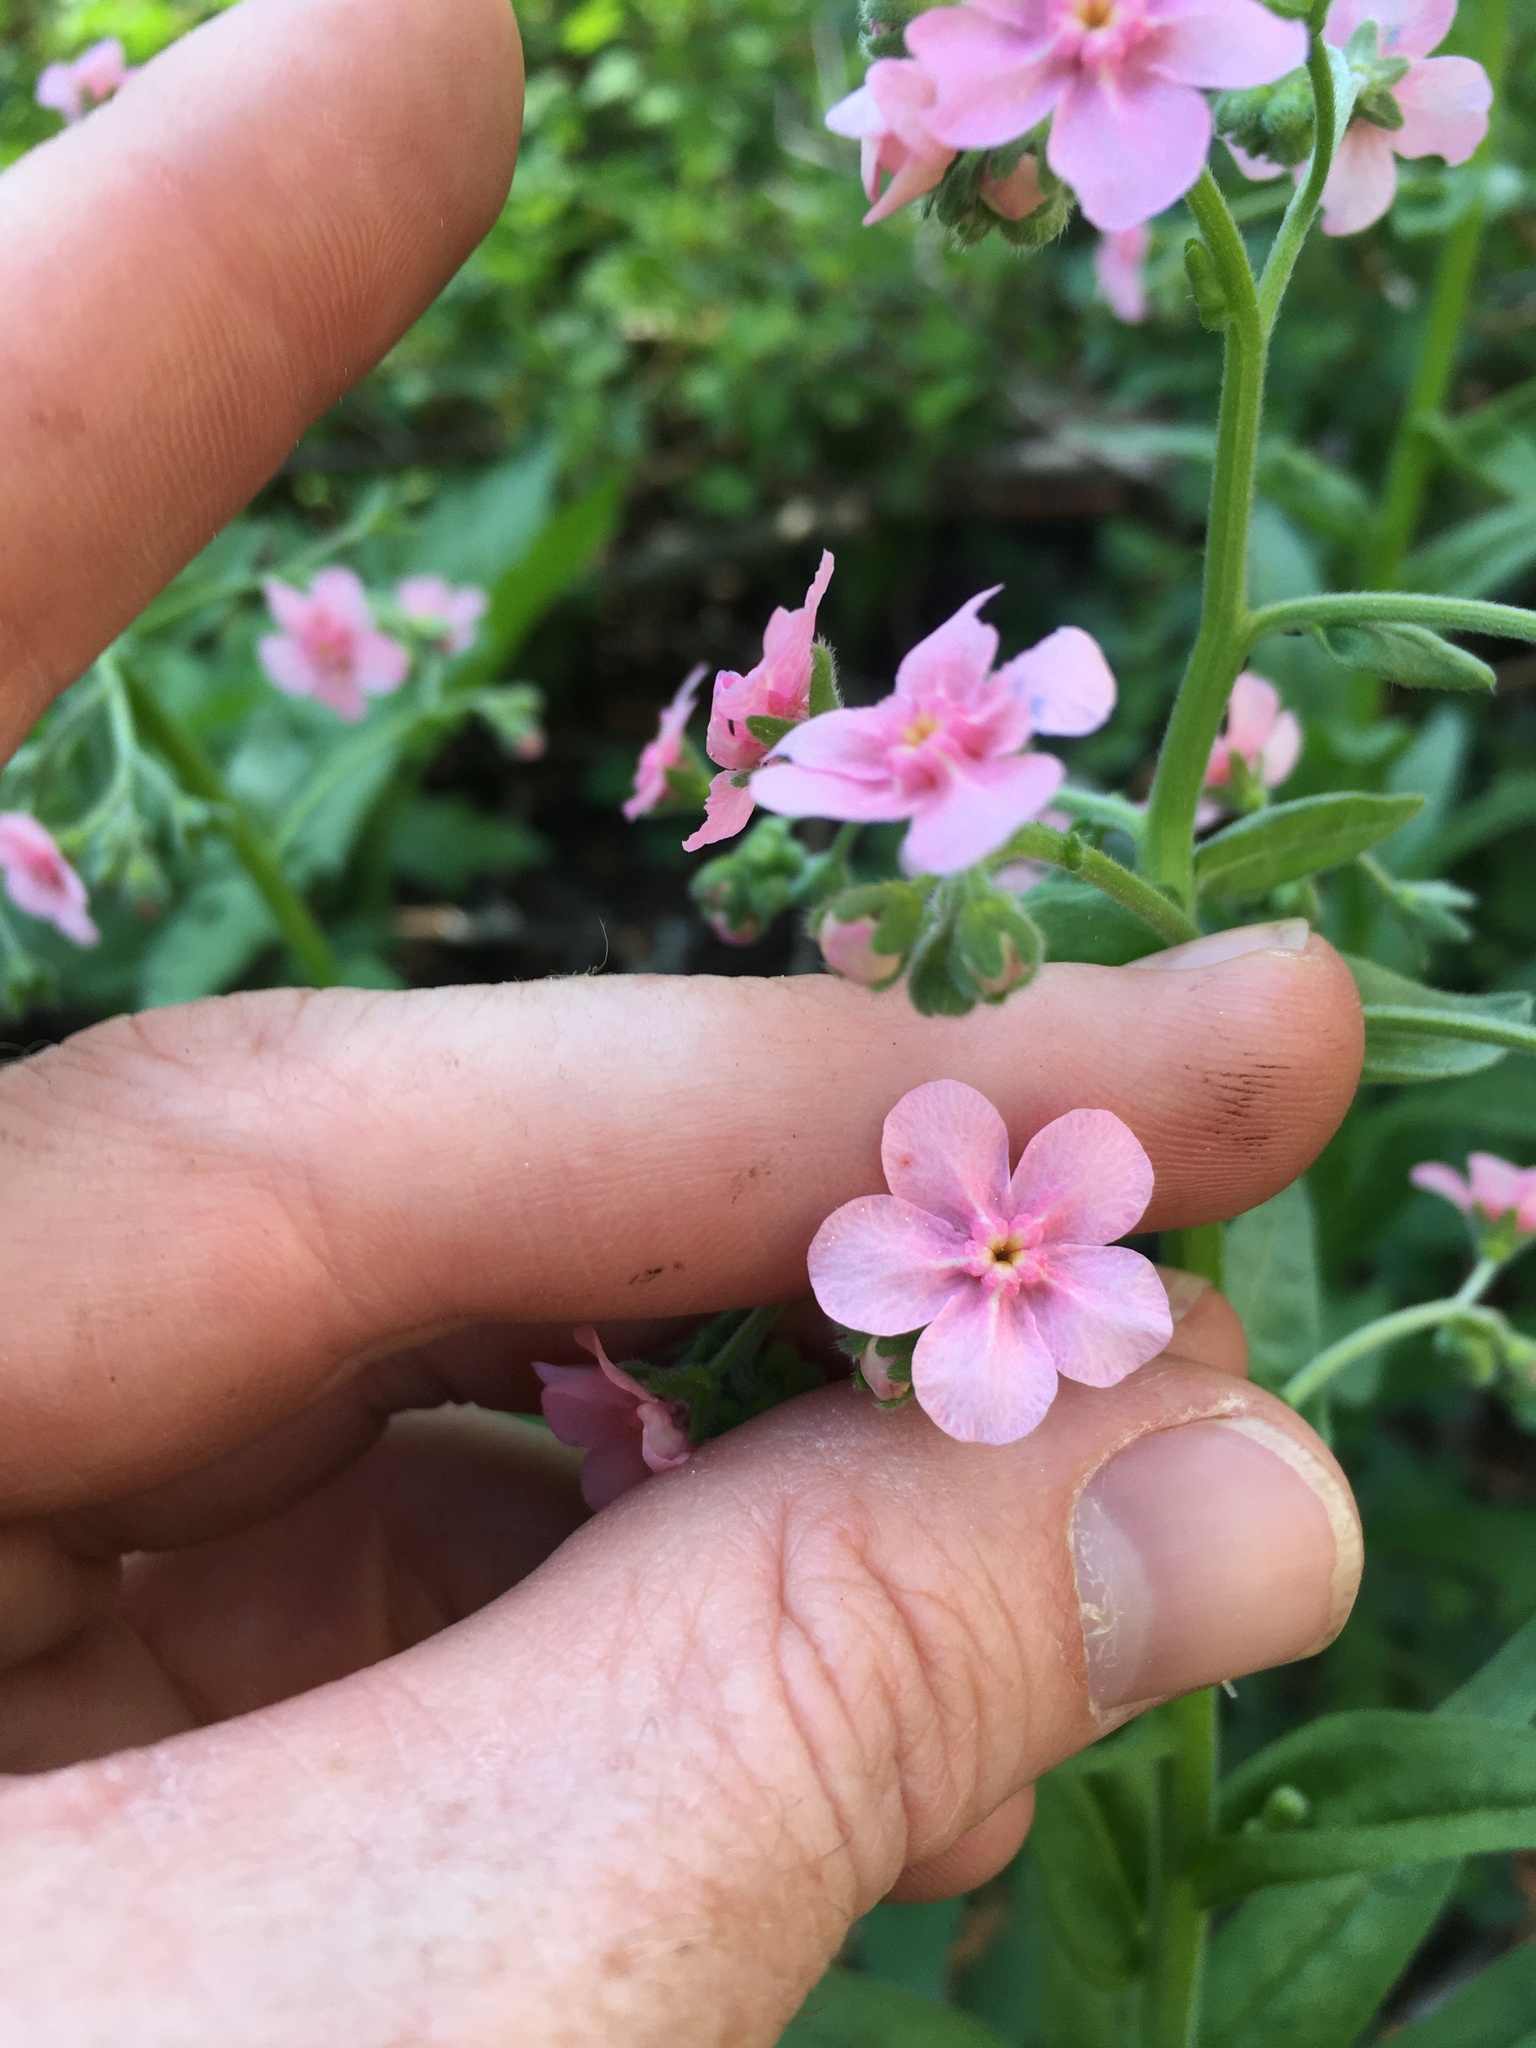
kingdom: Plantae
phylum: Tracheophyta
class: Magnoliopsida
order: Boraginales
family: Boraginaceae
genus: Hackelia
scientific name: Hackelia mundula
